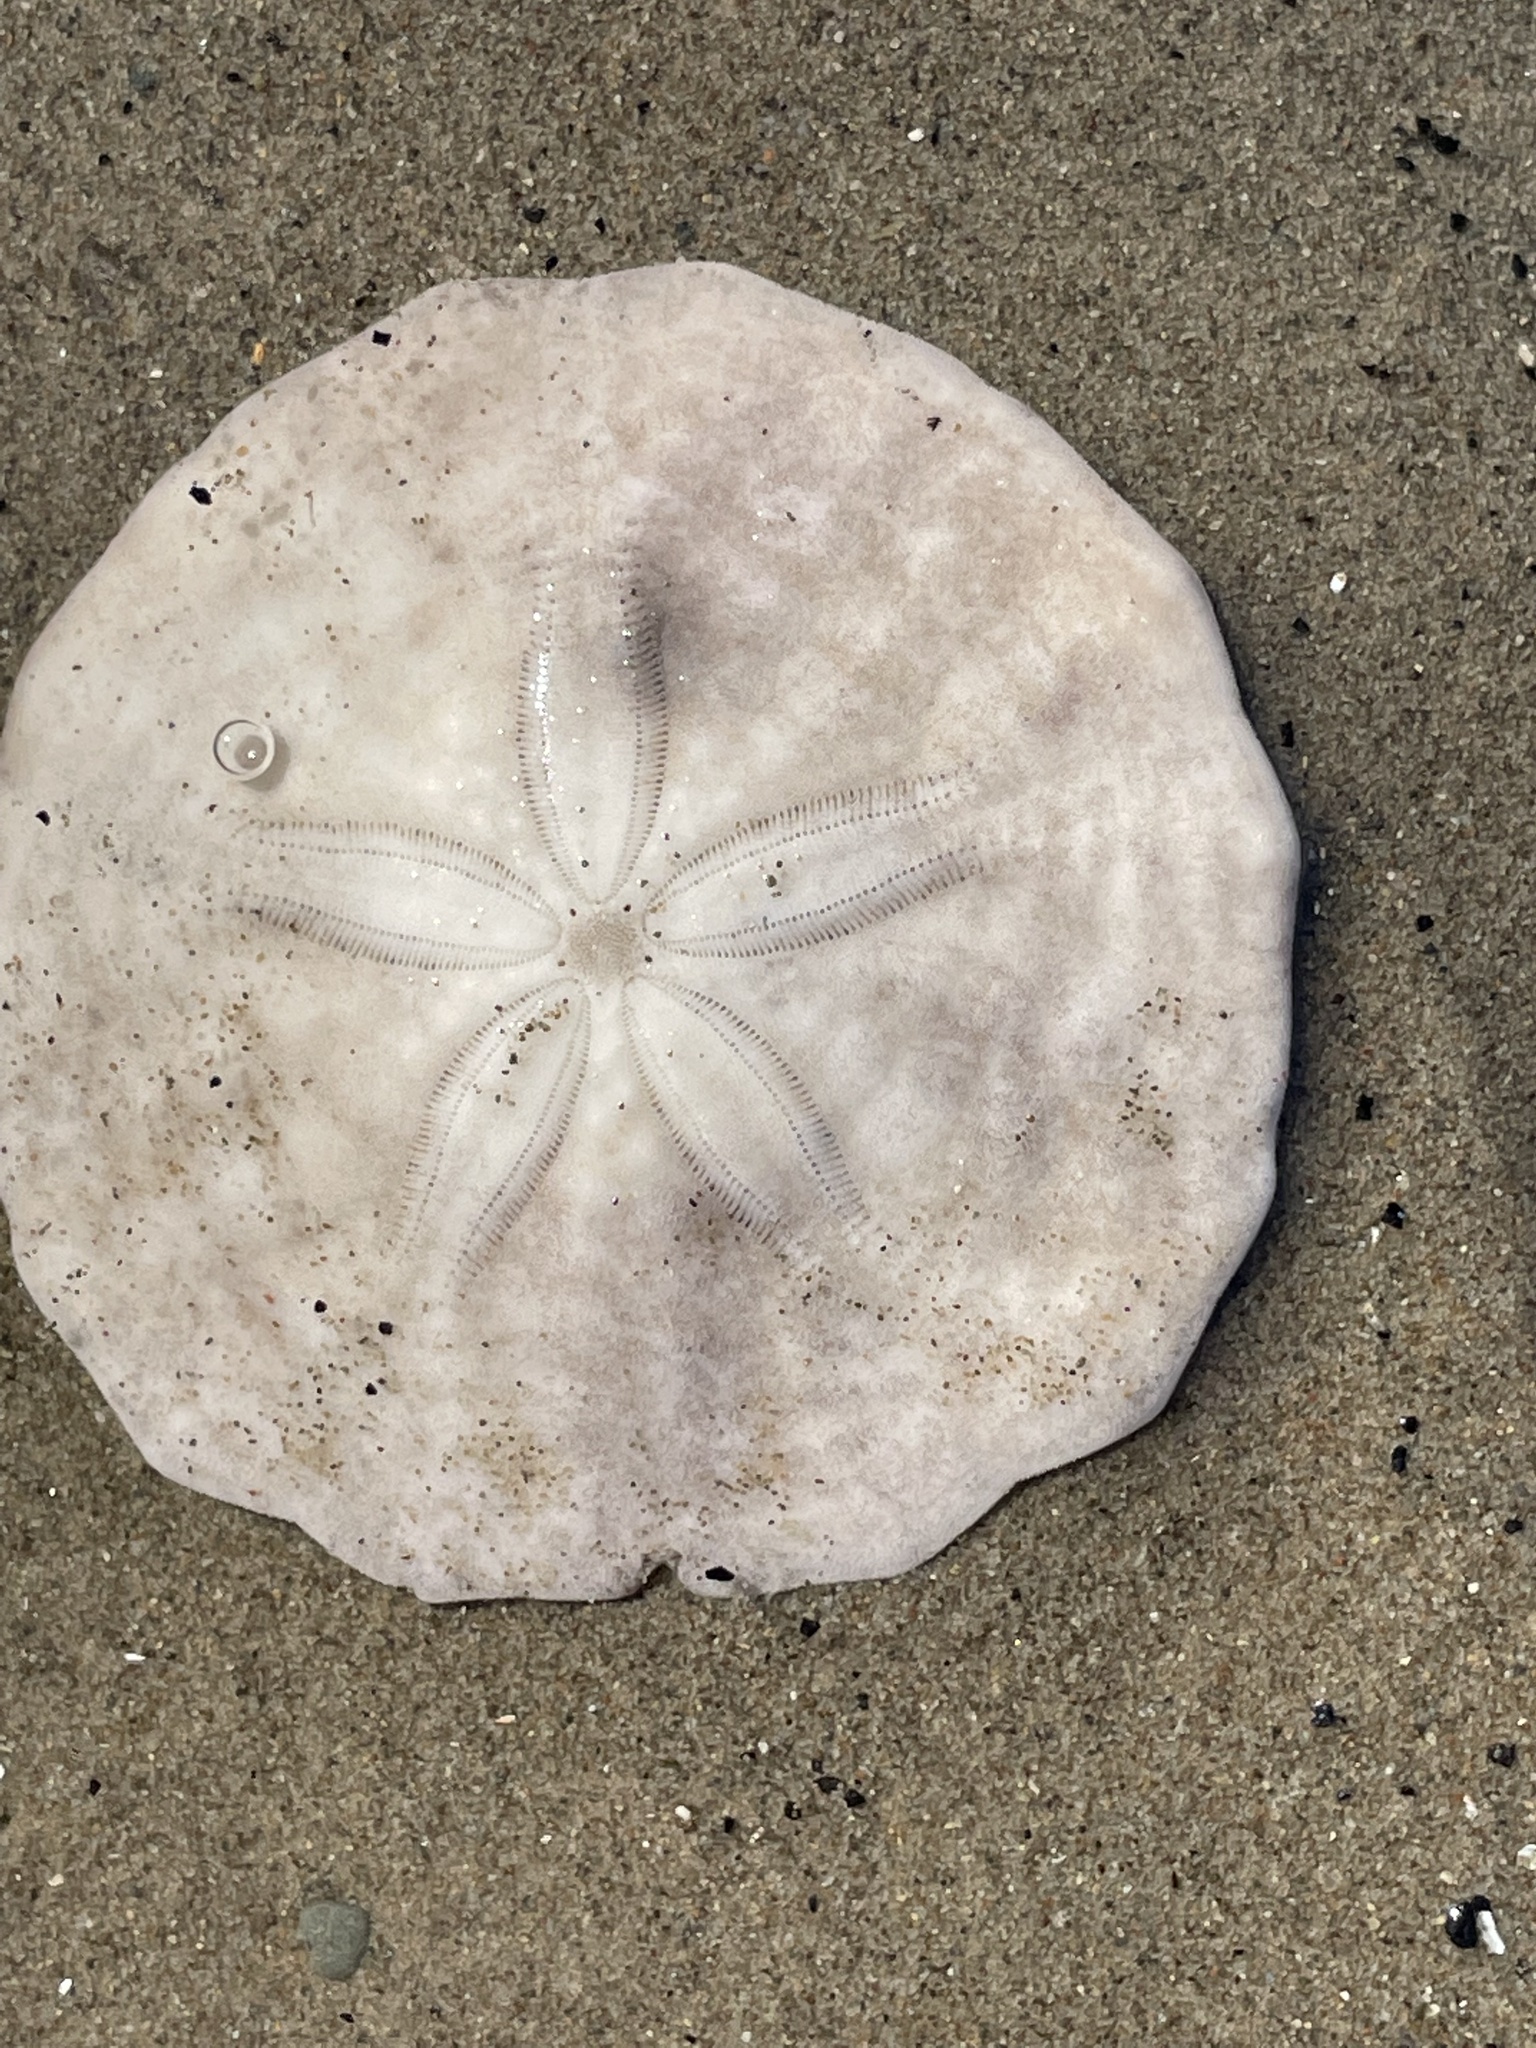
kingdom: Animalia
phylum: Echinodermata
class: Echinoidea
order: Echinolampadacea
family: Echinarachniidae
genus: Echinarachnius
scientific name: Echinarachnius parma
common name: Common sand dollar
